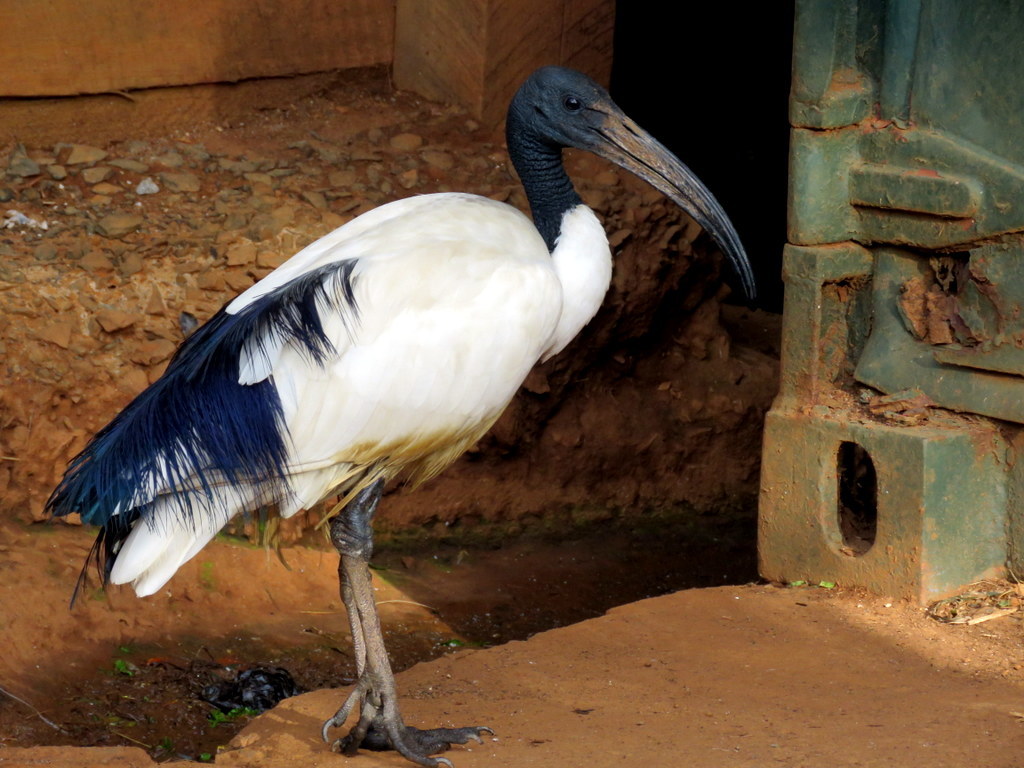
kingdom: Animalia
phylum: Chordata
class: Aves
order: Pelecaniformes
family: Threskiornithidae
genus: Threskiornis
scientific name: Threskiornis aethiopicus
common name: Sacred ibis
